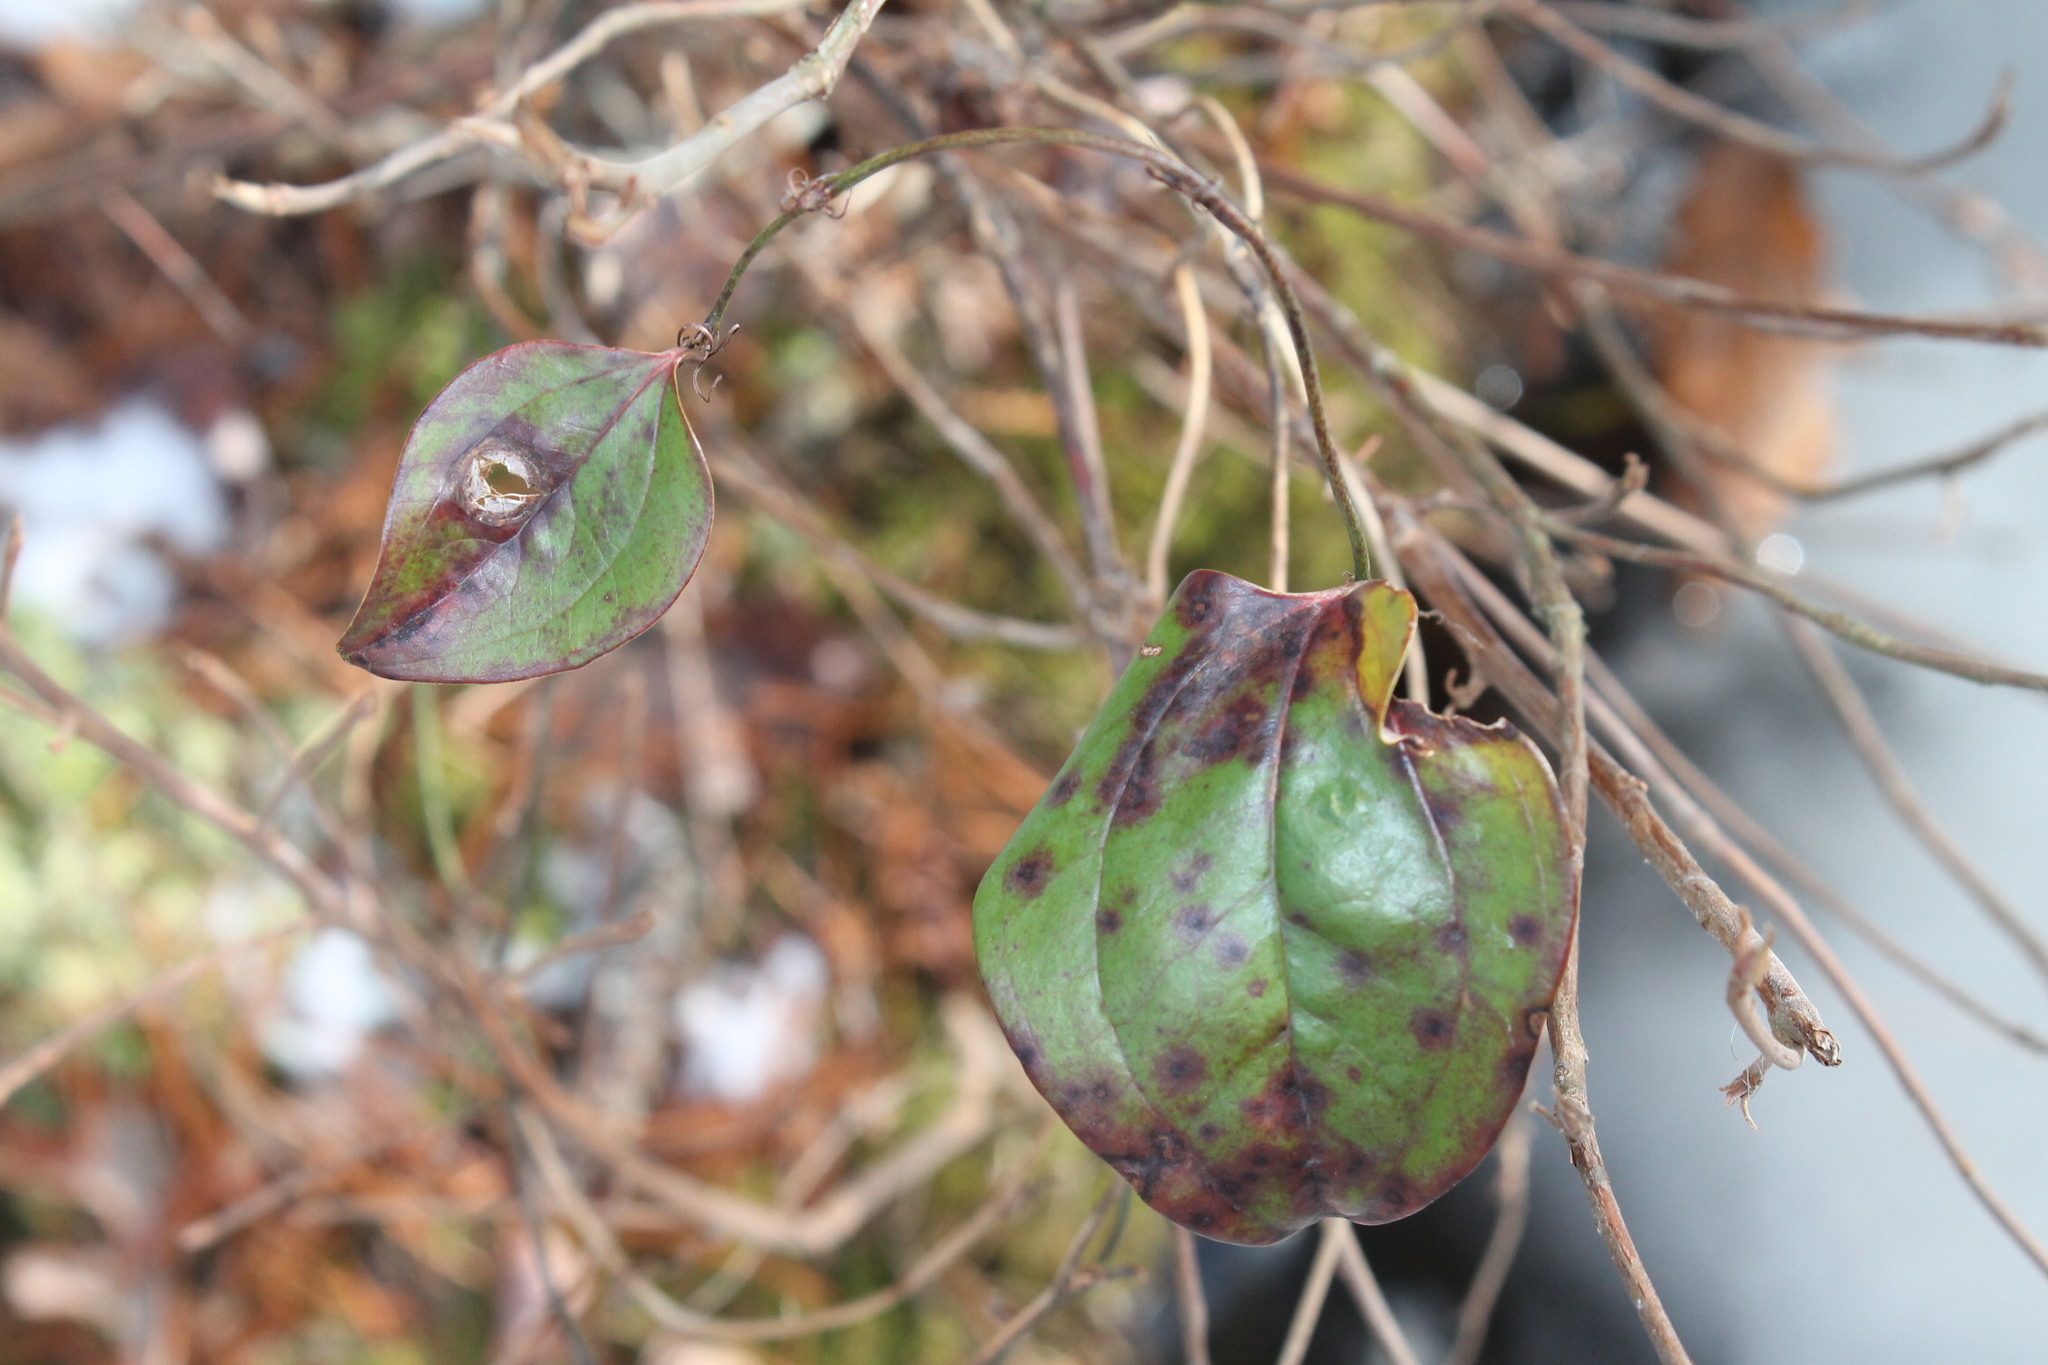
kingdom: Plantae
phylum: Tracheophyta
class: Liliopsida
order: Liliales
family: Smilacaceae
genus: Smilax
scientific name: Smilax glauca
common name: Cat greenbrier
